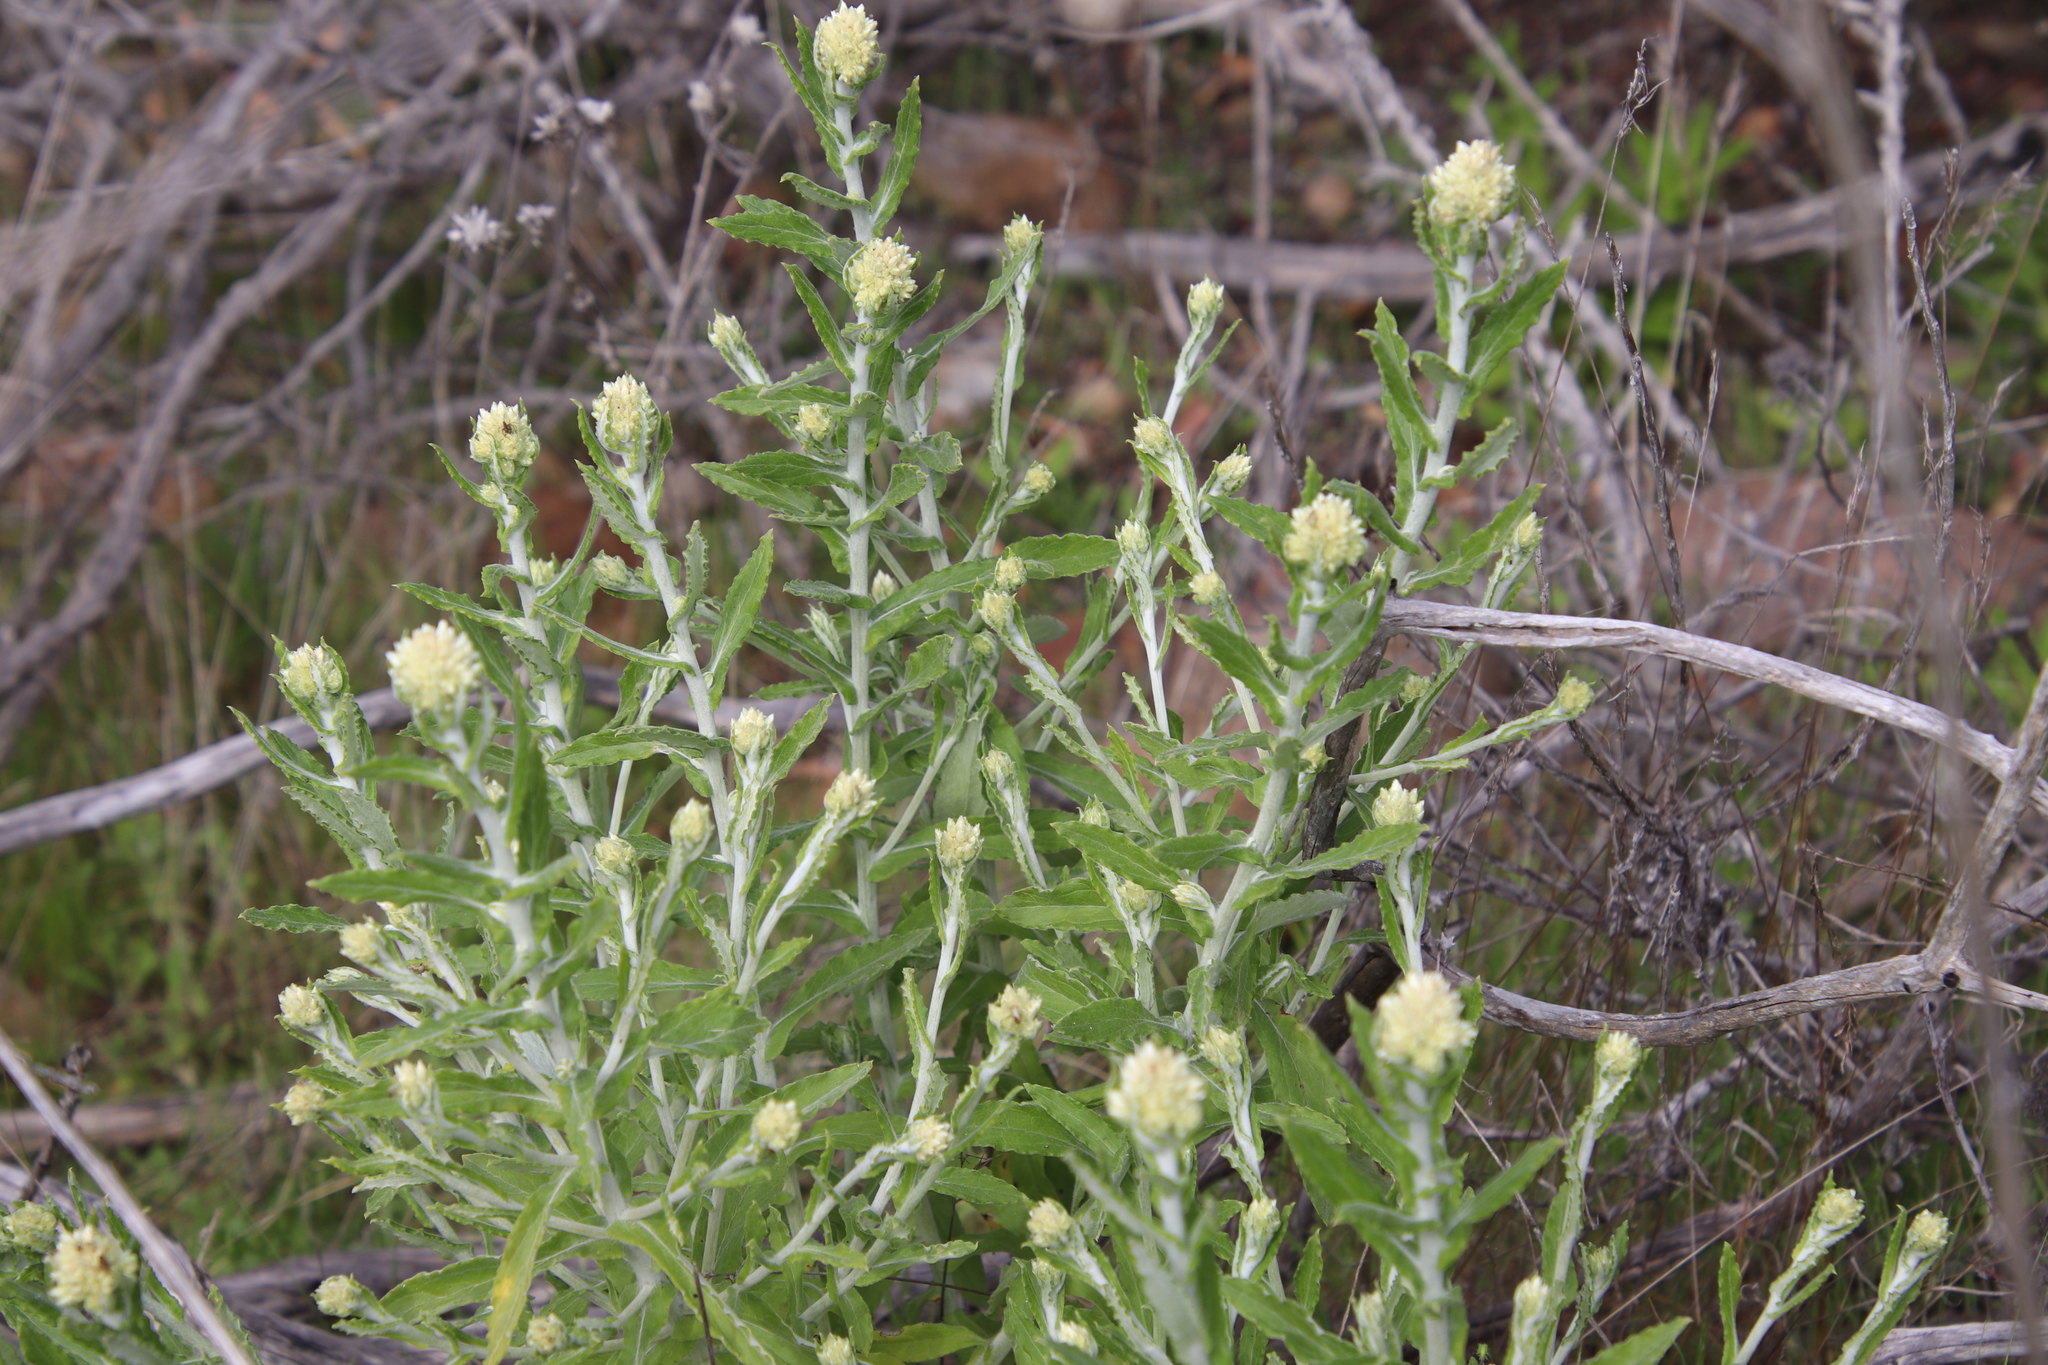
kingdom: Plantae
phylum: Tracheophyta
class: Magnoliopsida
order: Asterales
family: Asteraceae
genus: Pseudognaphalium
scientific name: Pseudognaphalium biolettii
